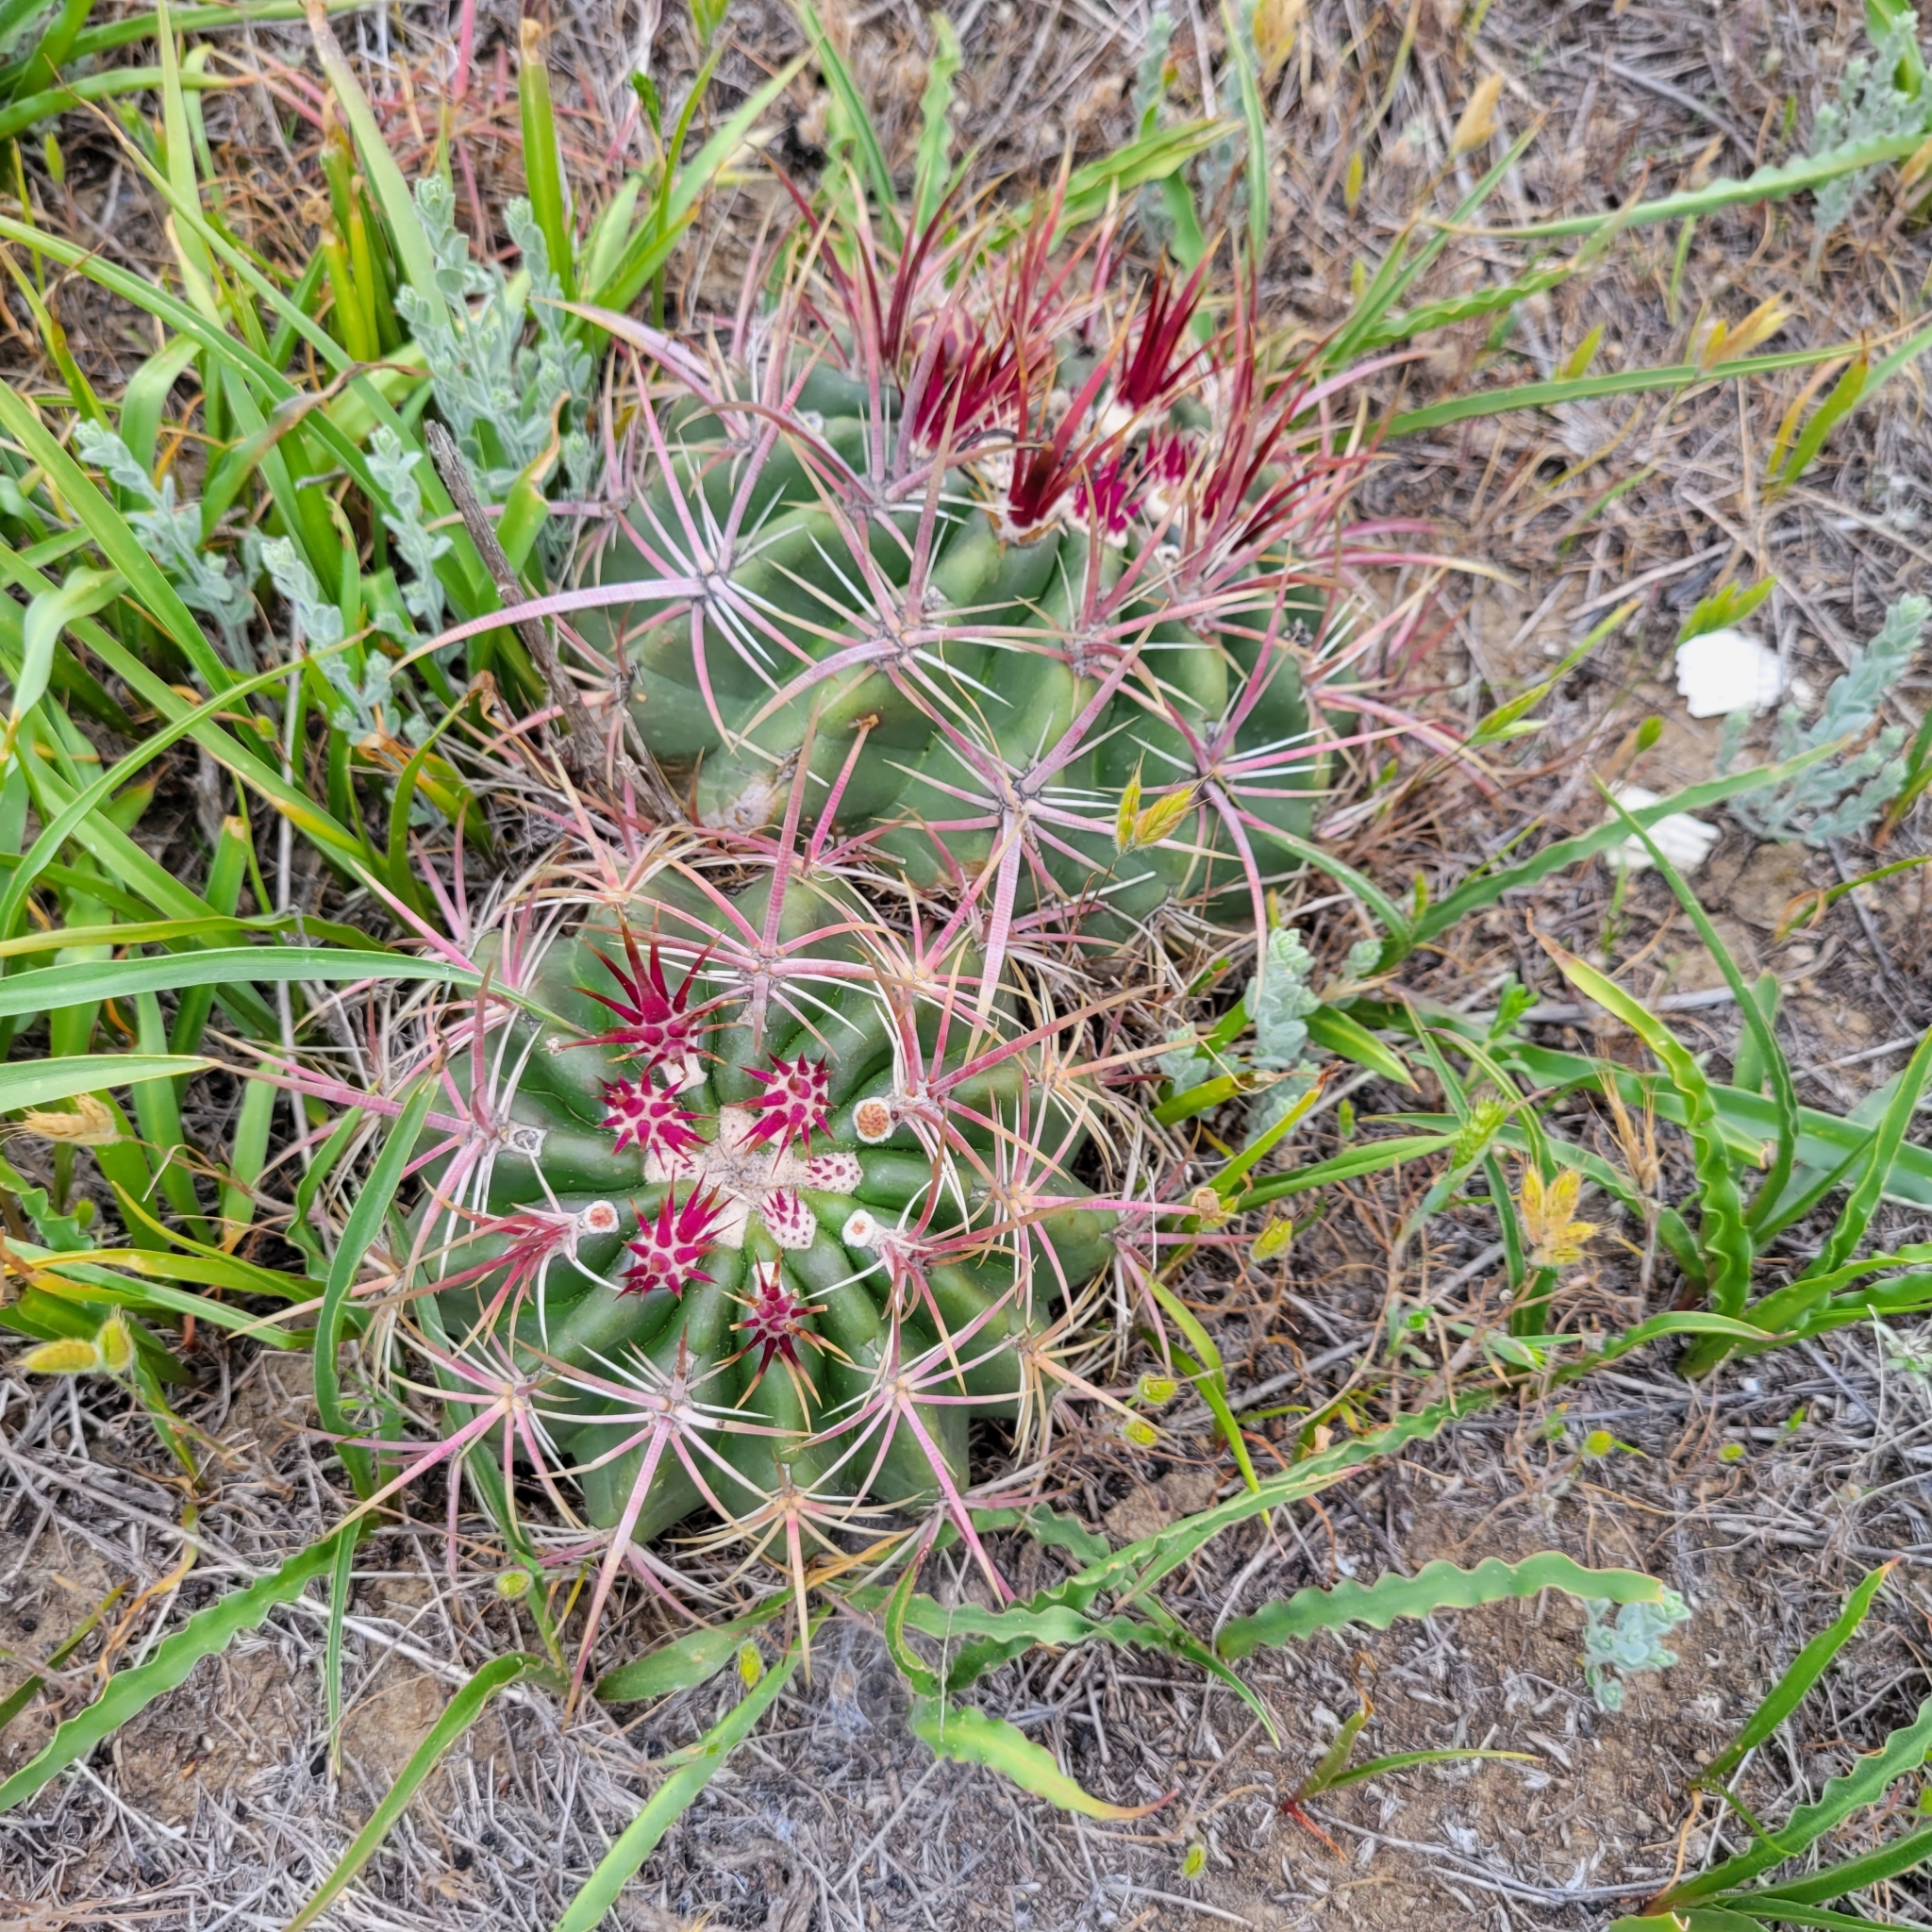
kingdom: Plantae
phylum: Tracheophyta
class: Magnoliopsida
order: Caryophyllales
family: Cactaceae
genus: Ferocactus
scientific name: Ferocactus viridescens
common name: San diego barrel cactus
